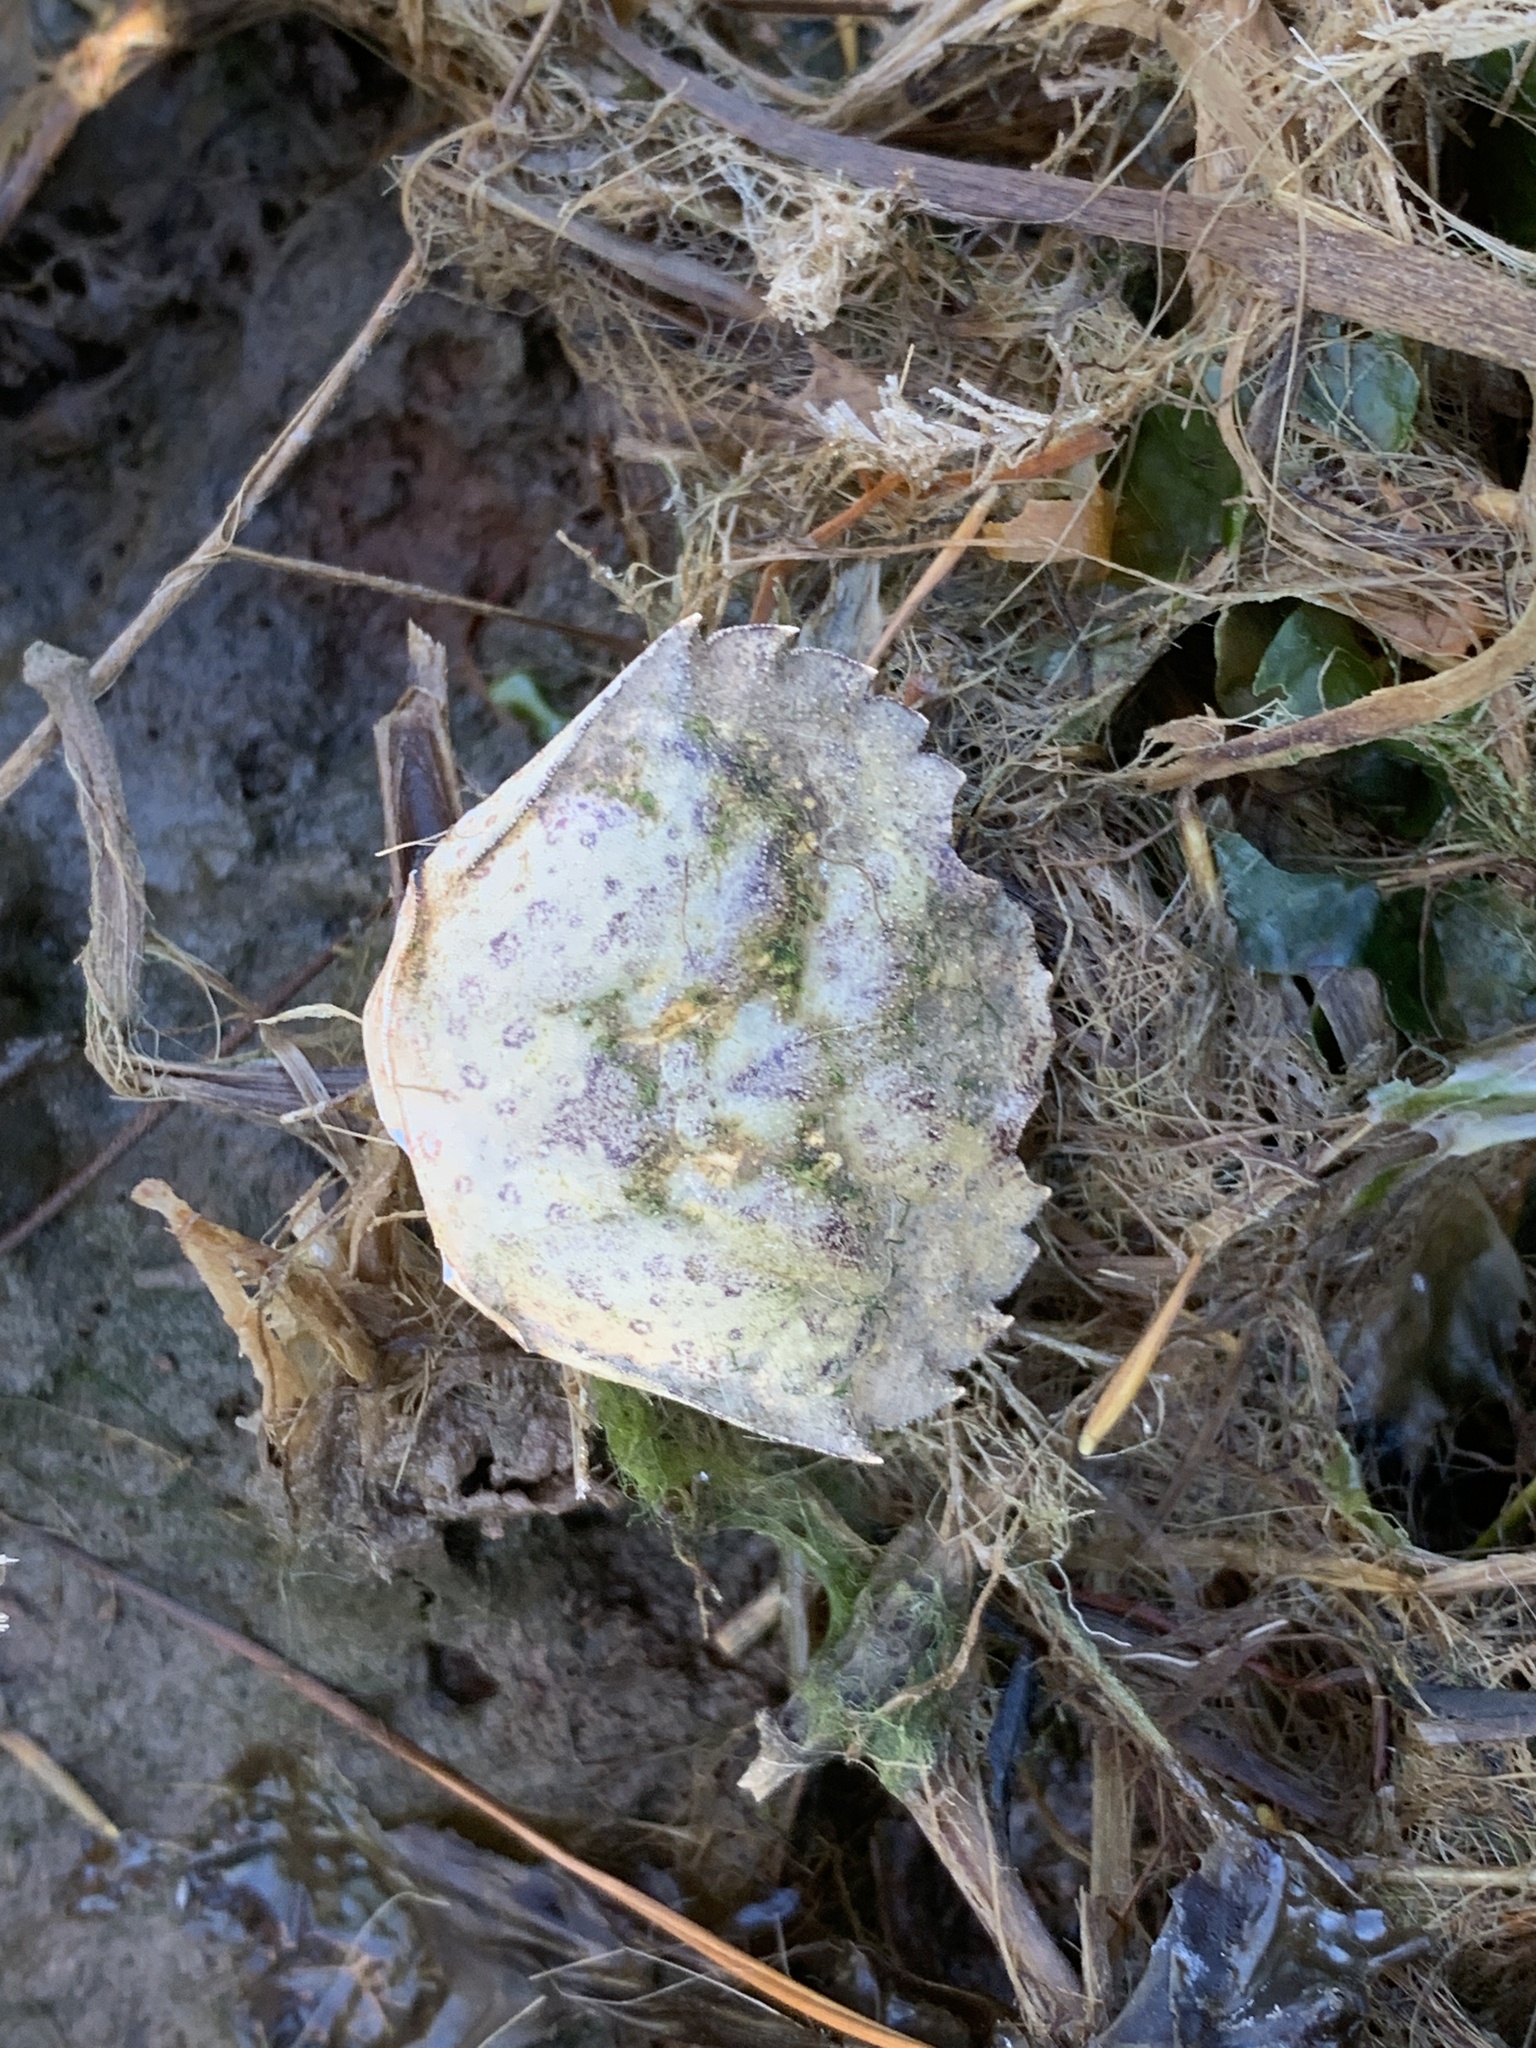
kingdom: Animalia
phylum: Arthropoda
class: Malacostraca
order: Decapoda
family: Carcinidae
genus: Carcinus
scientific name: Carcinus maenas
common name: European green crab
